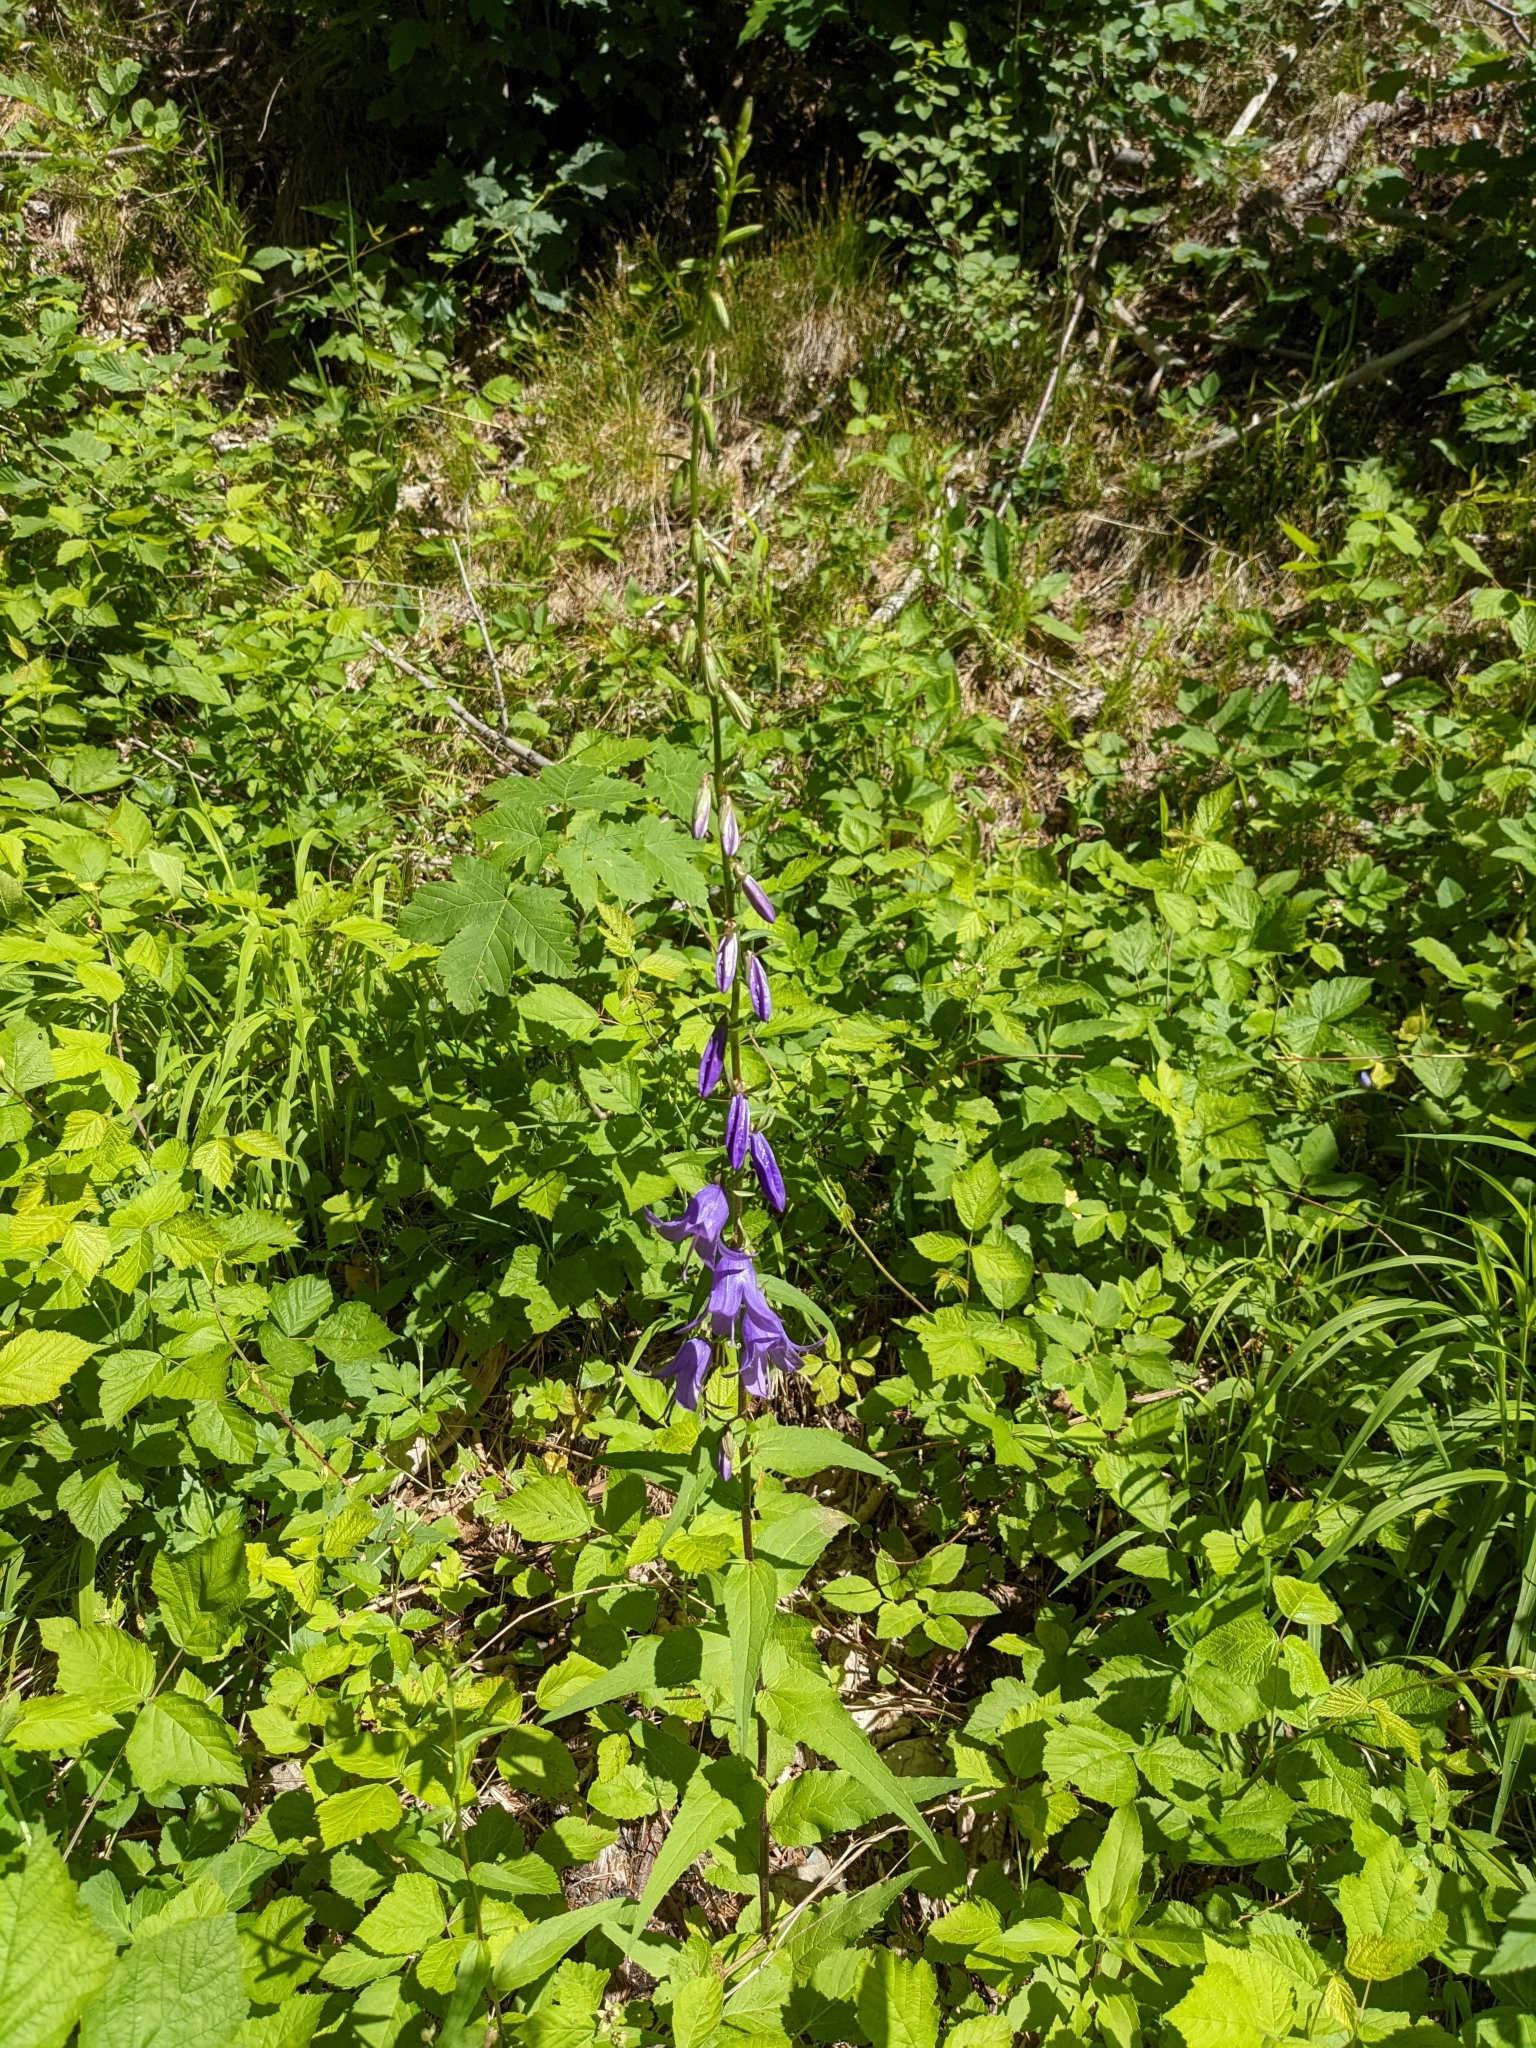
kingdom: Plantae
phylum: Tracheophyta
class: Magnoliopsida
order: Asterales
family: Campanulaceae
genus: Campanula
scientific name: Campanula rapunculoides
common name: Creeping bellflower
